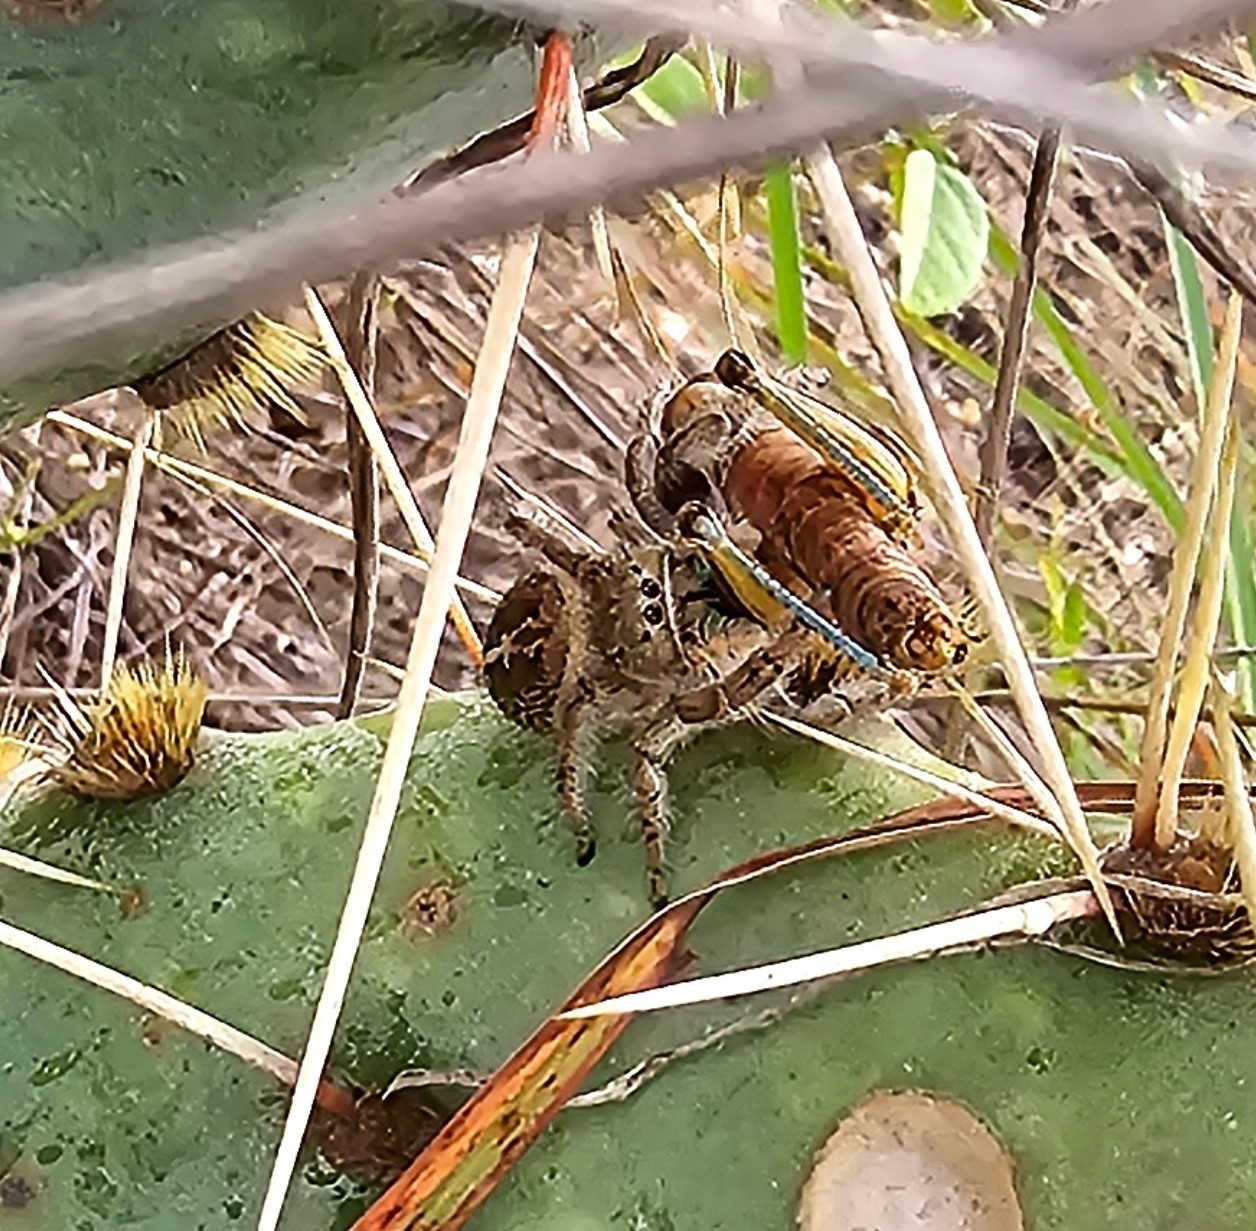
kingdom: Animalia
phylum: Arthropoda
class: Arachnida
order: Araneae
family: Salticidae
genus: Phidippus
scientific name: Phidippus texanus
